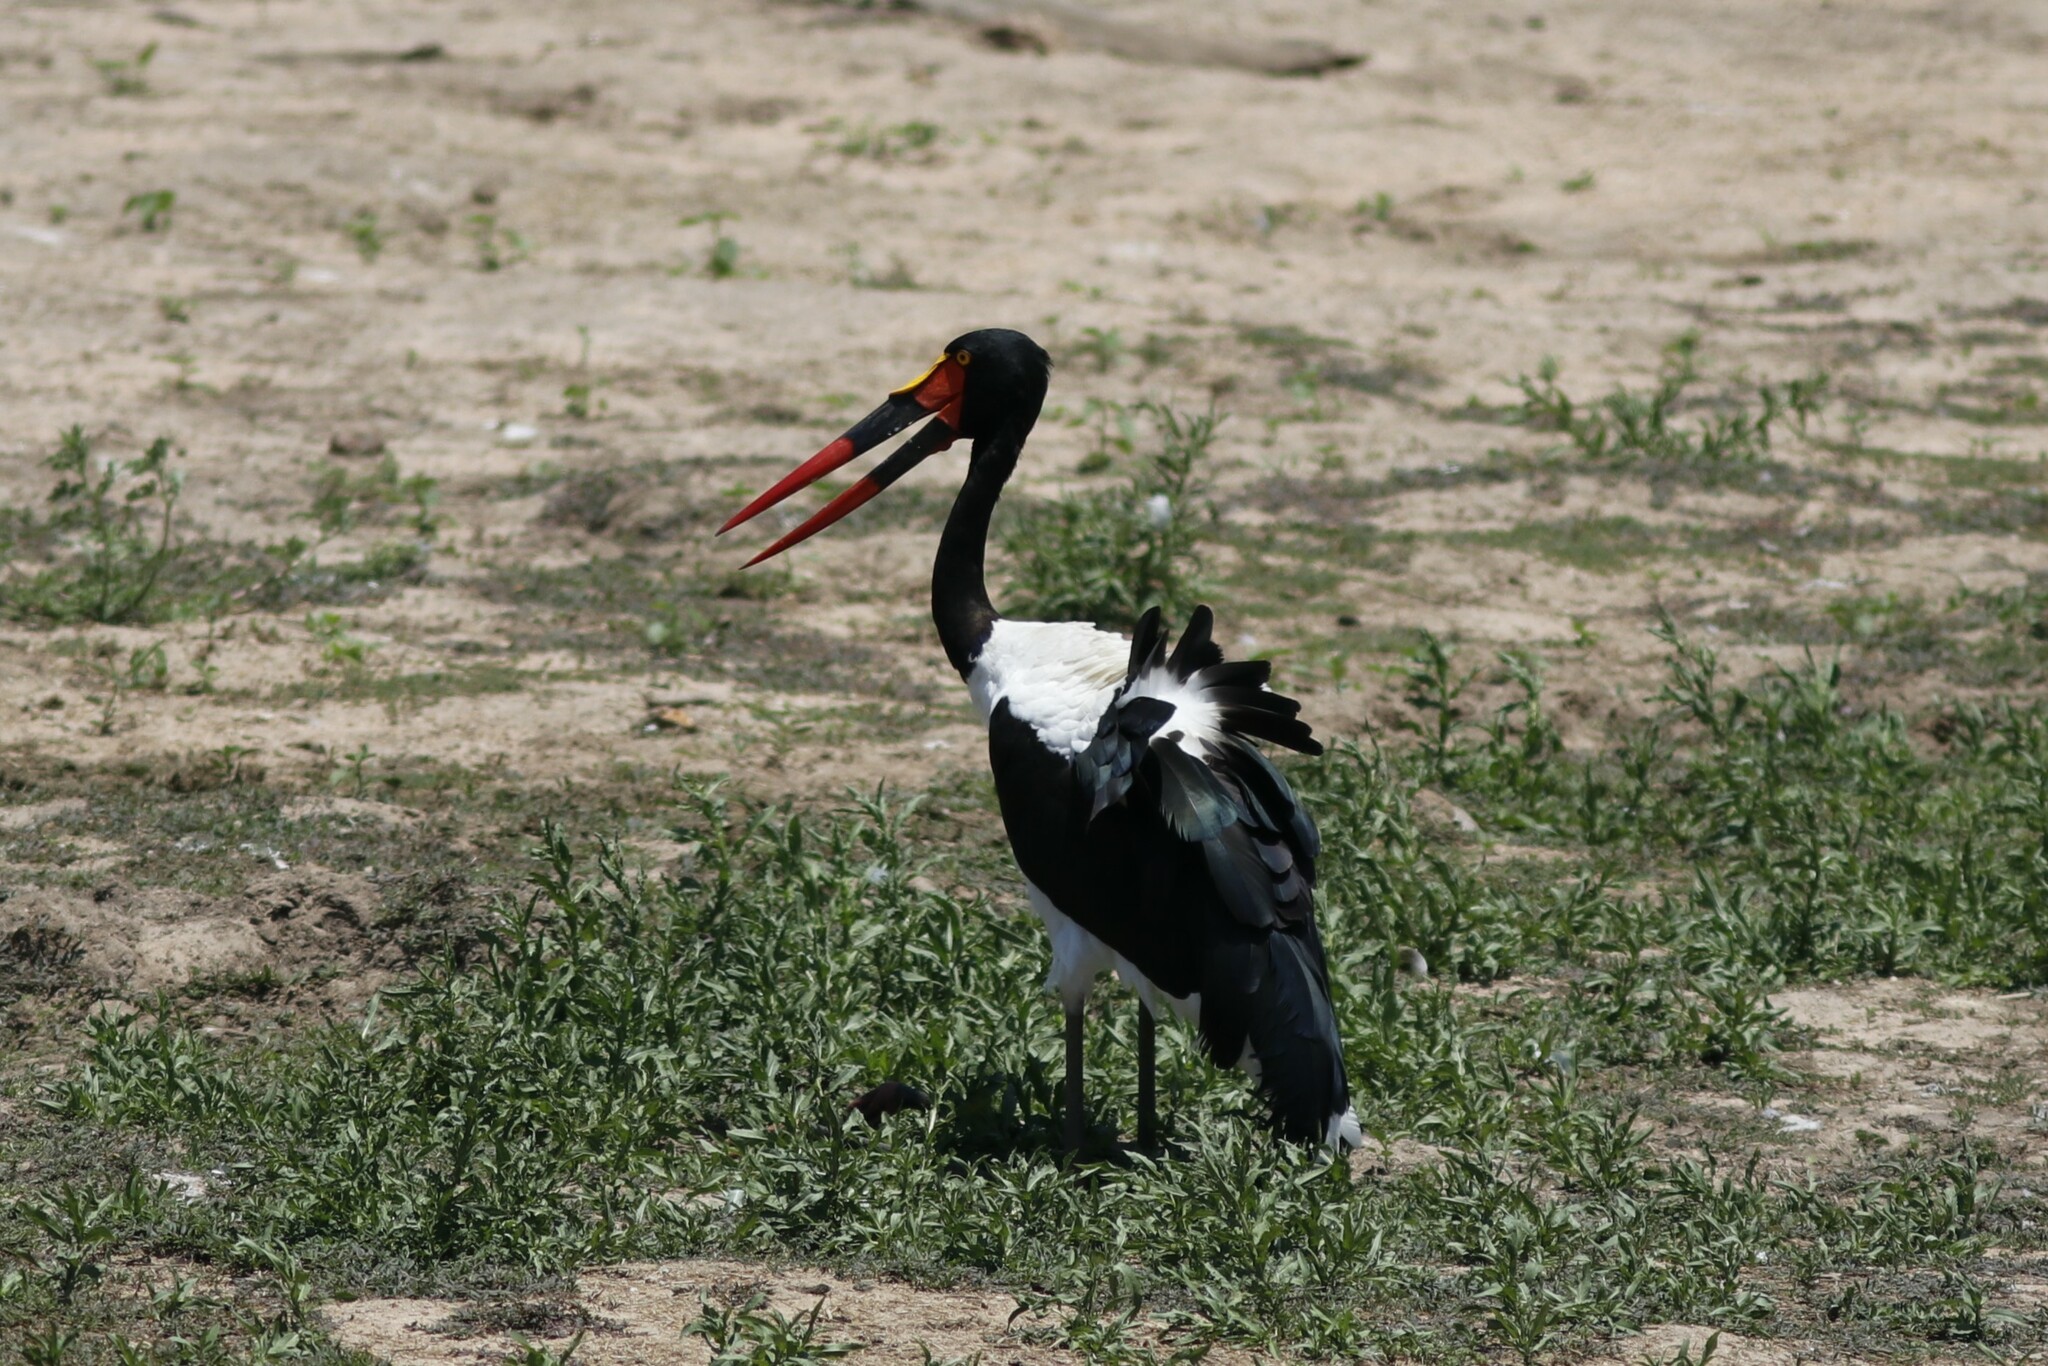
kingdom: Animalia
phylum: Chordata
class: Aves
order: Ciconiiformes
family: Ciconiidae
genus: Ephippiorhynchus
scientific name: Ephippiorhynchus senegalensis
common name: Saddle-billed stork
